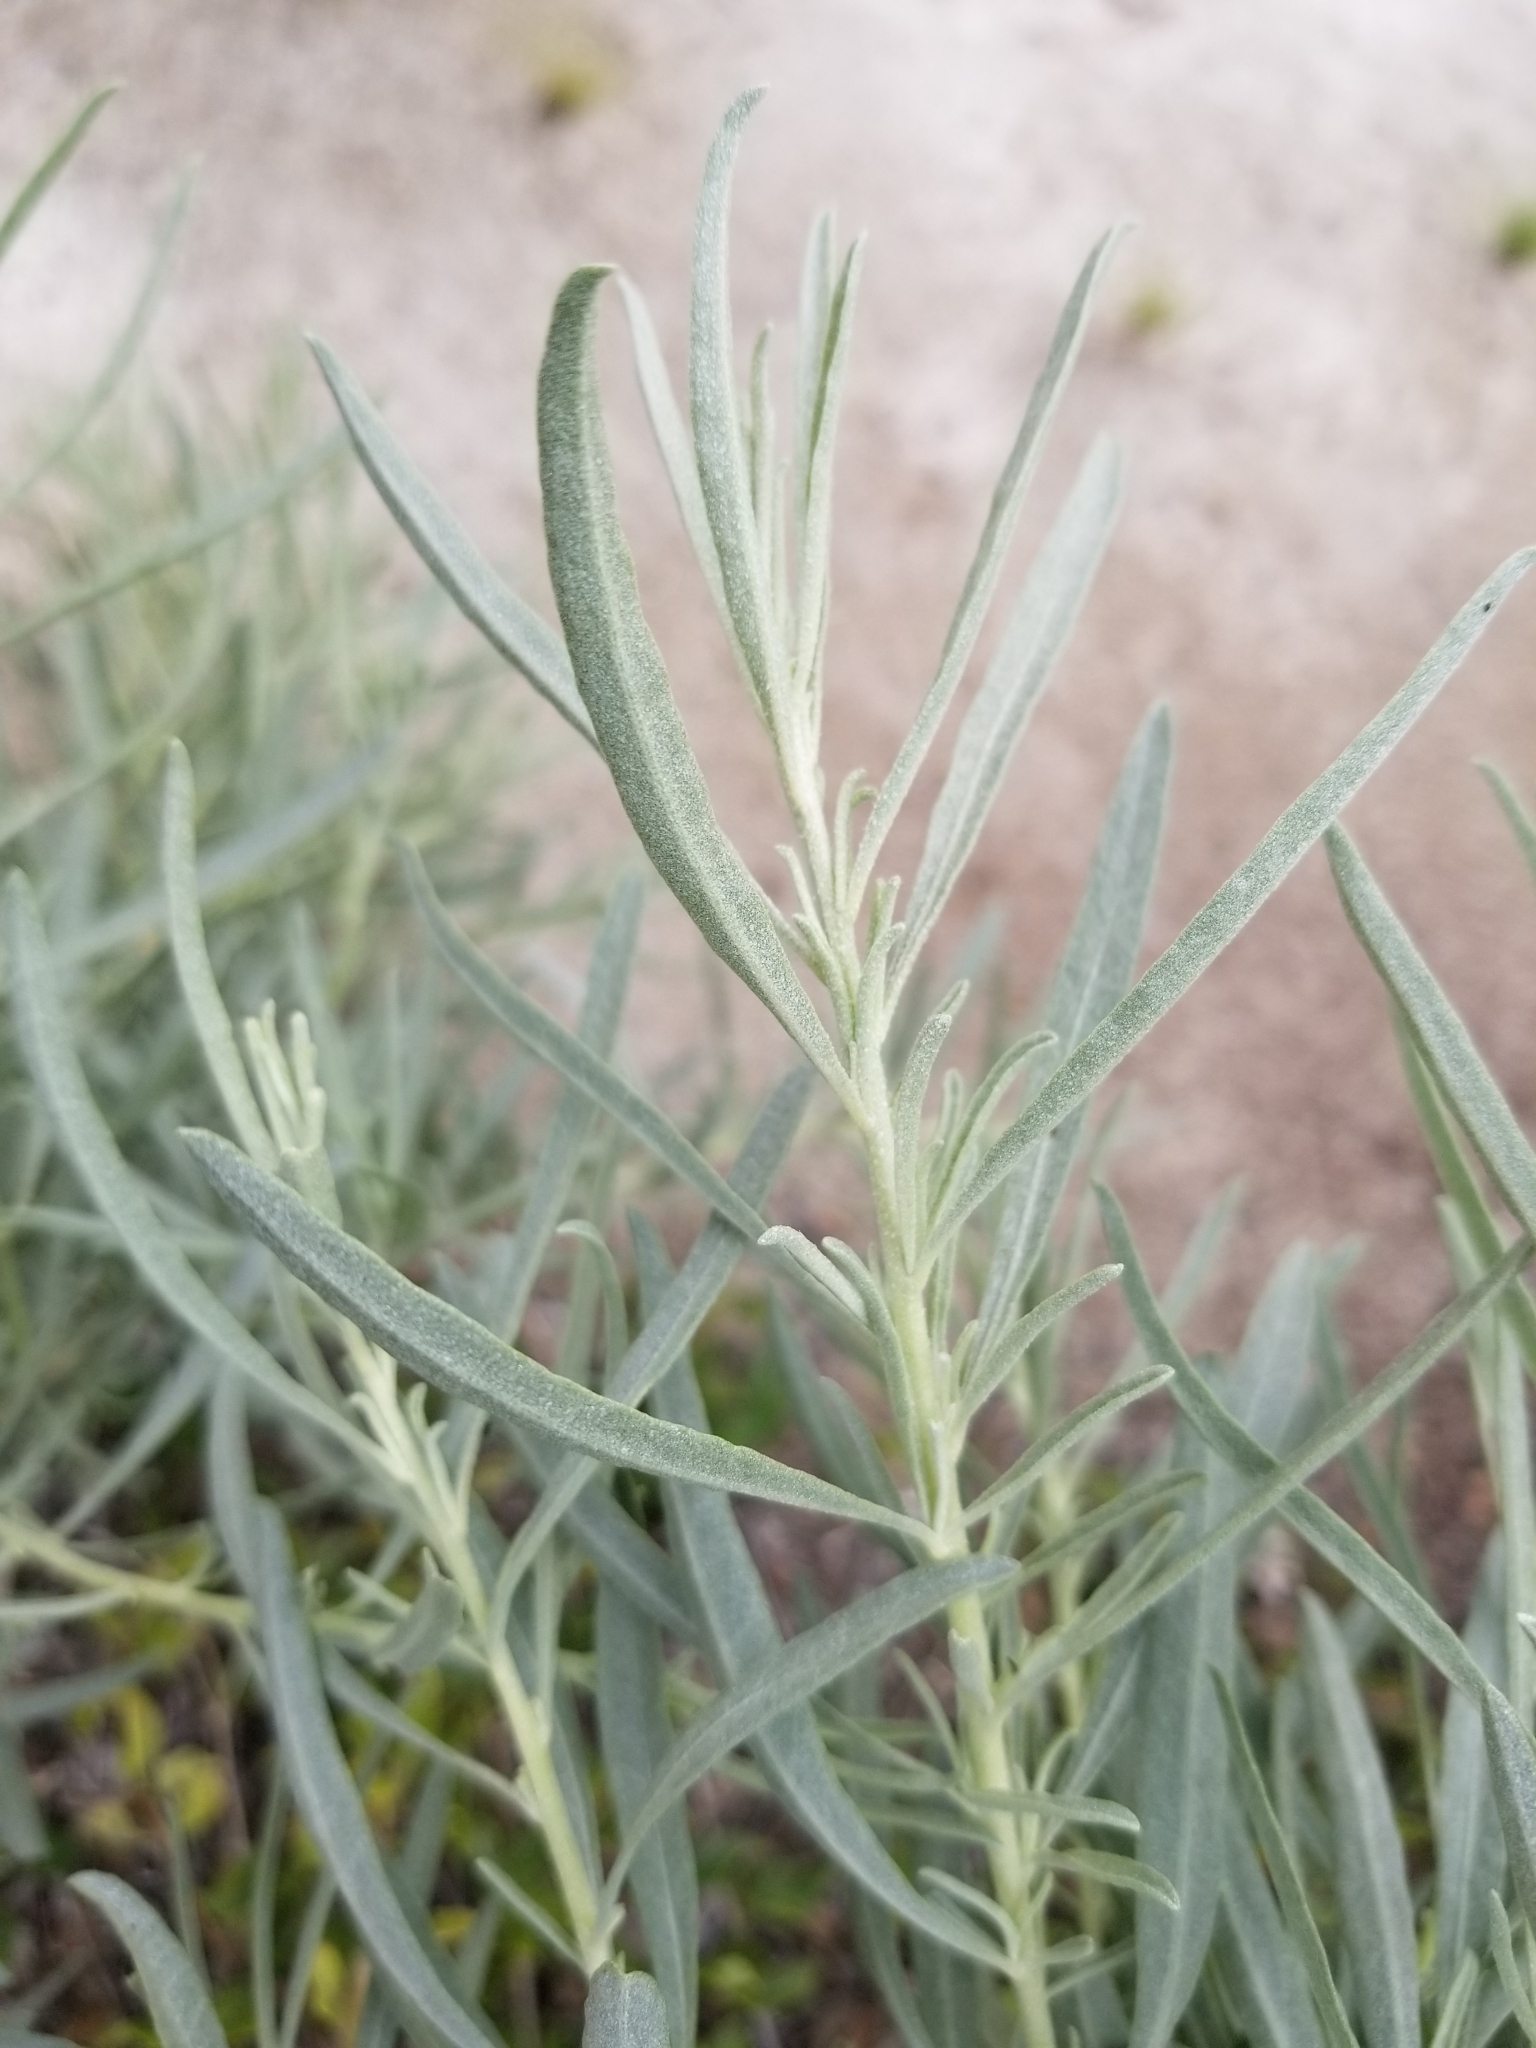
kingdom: Plantae
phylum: Tracheophyta
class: Magnoliopsida
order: Caryophyllales
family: Amaranthaceae
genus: Atriplex
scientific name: Atriplex canescens
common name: Four-wing saltbush
